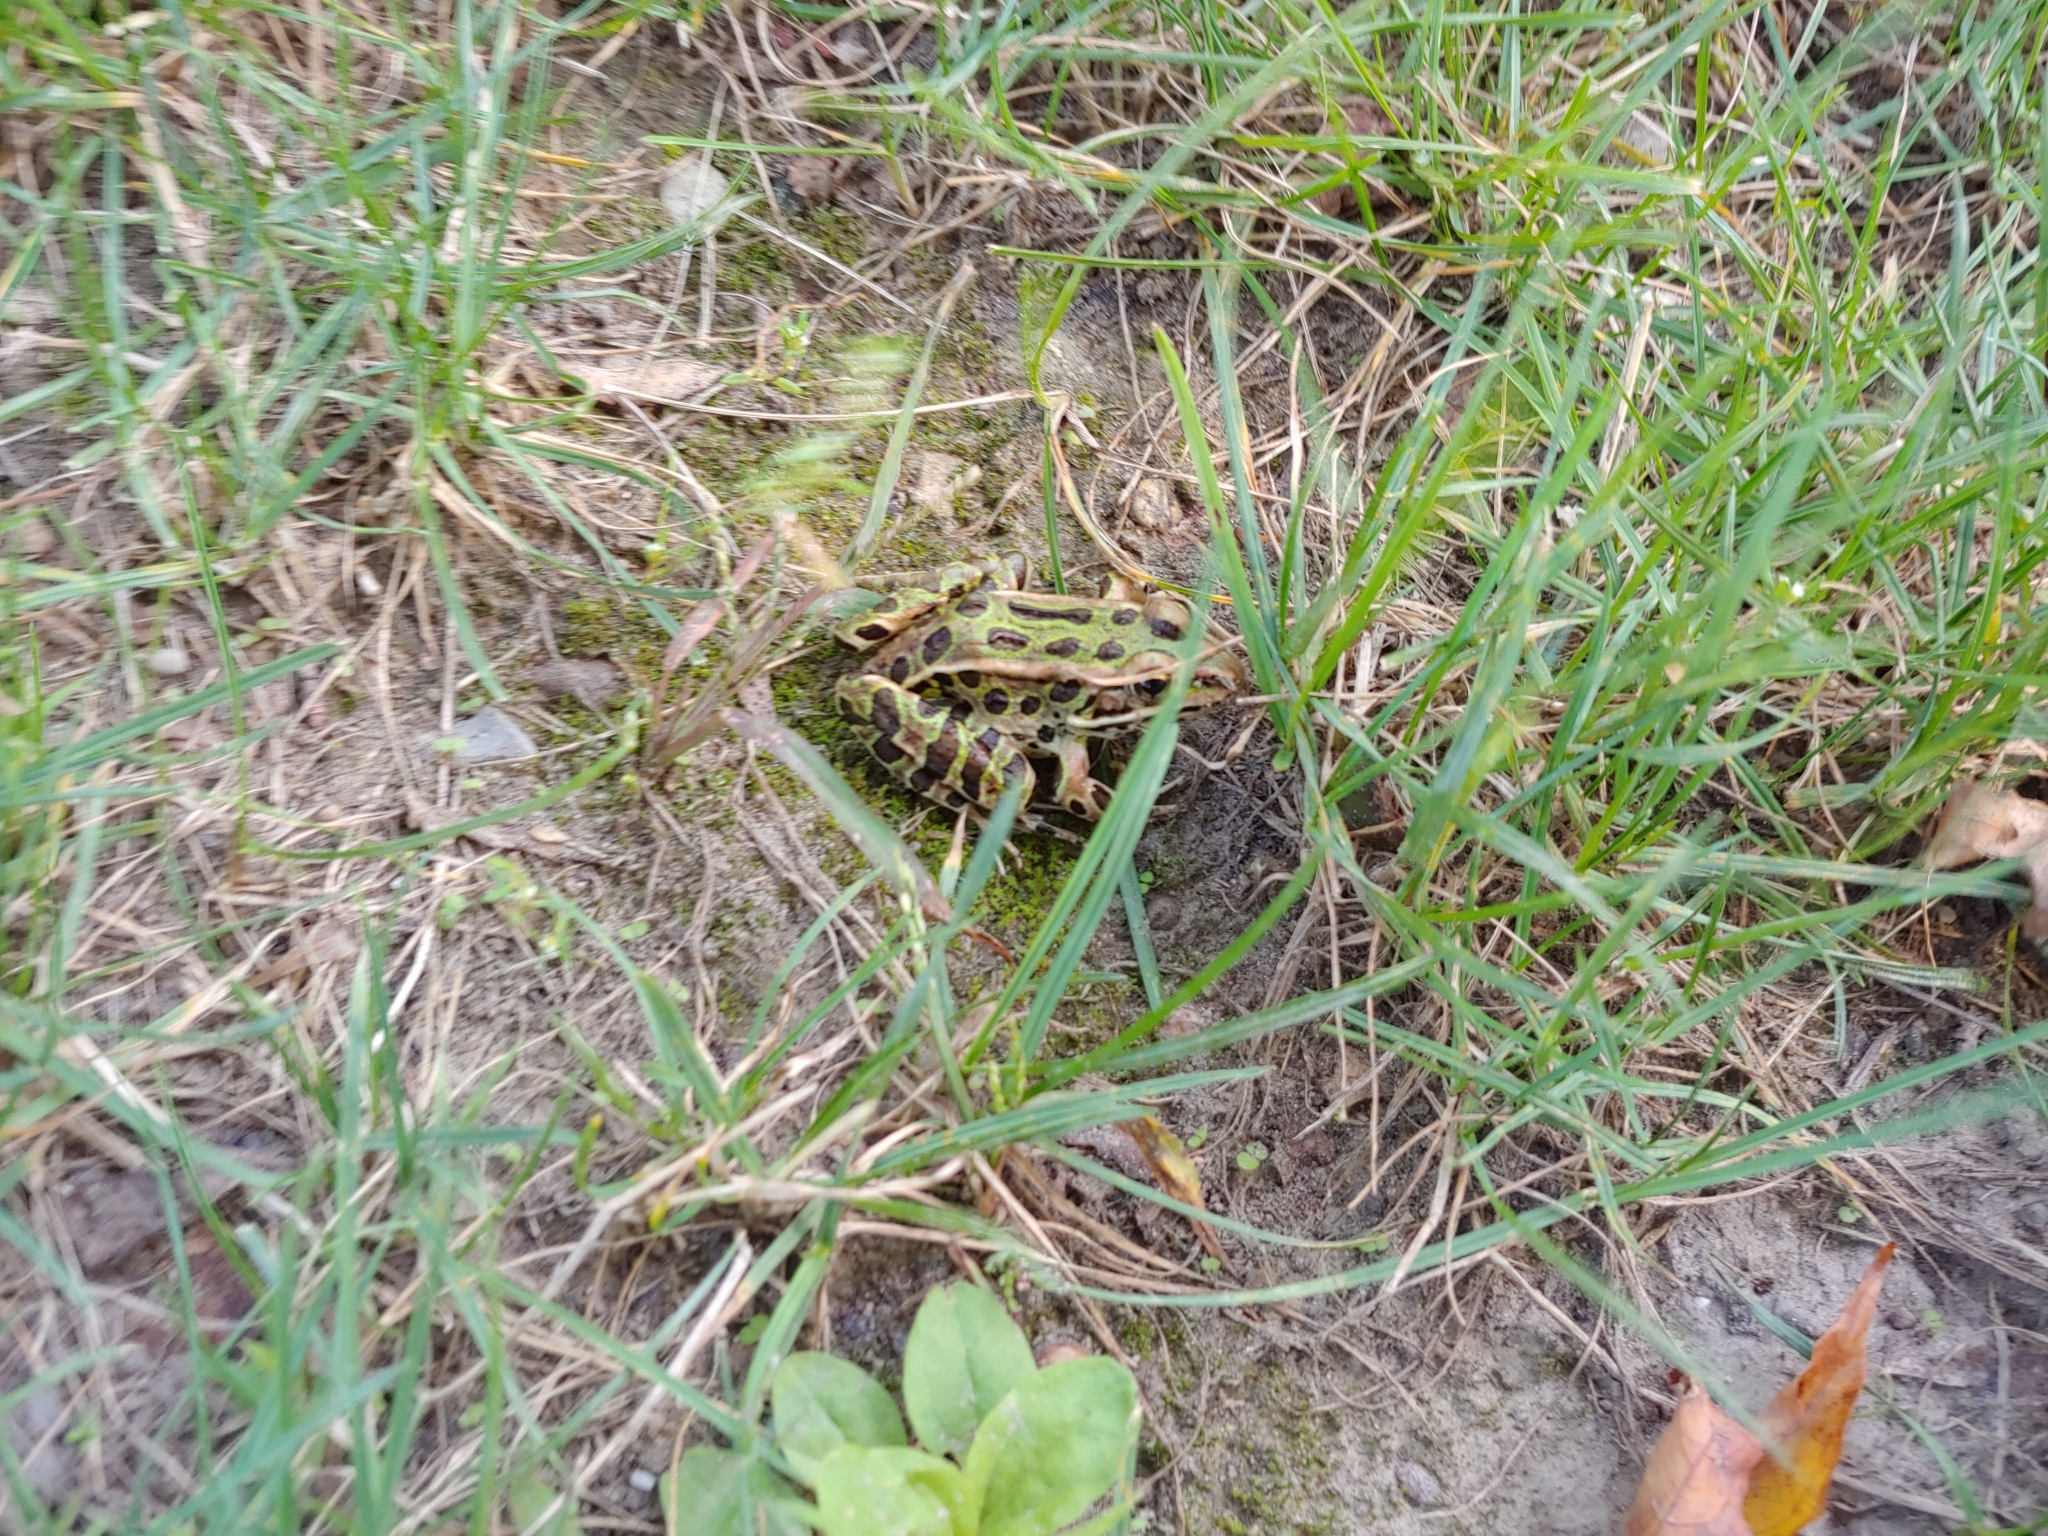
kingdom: Animalia
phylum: Chordata
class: Amphibia
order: Anura
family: Ranidae
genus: Lithobates
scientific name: Lithobates pipiens
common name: Northern leopard frog
